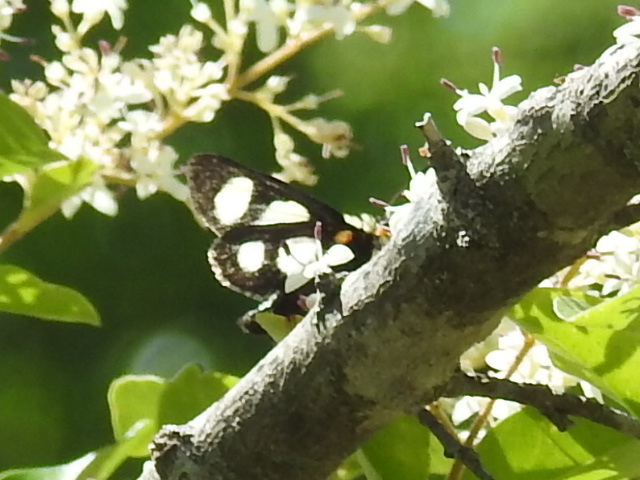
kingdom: Animalia
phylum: Arthropoda
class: Insecta
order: Lepidoptera
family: Noctuidae
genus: Alypia
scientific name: Alypia octomaculata
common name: Eight-spotted forester
